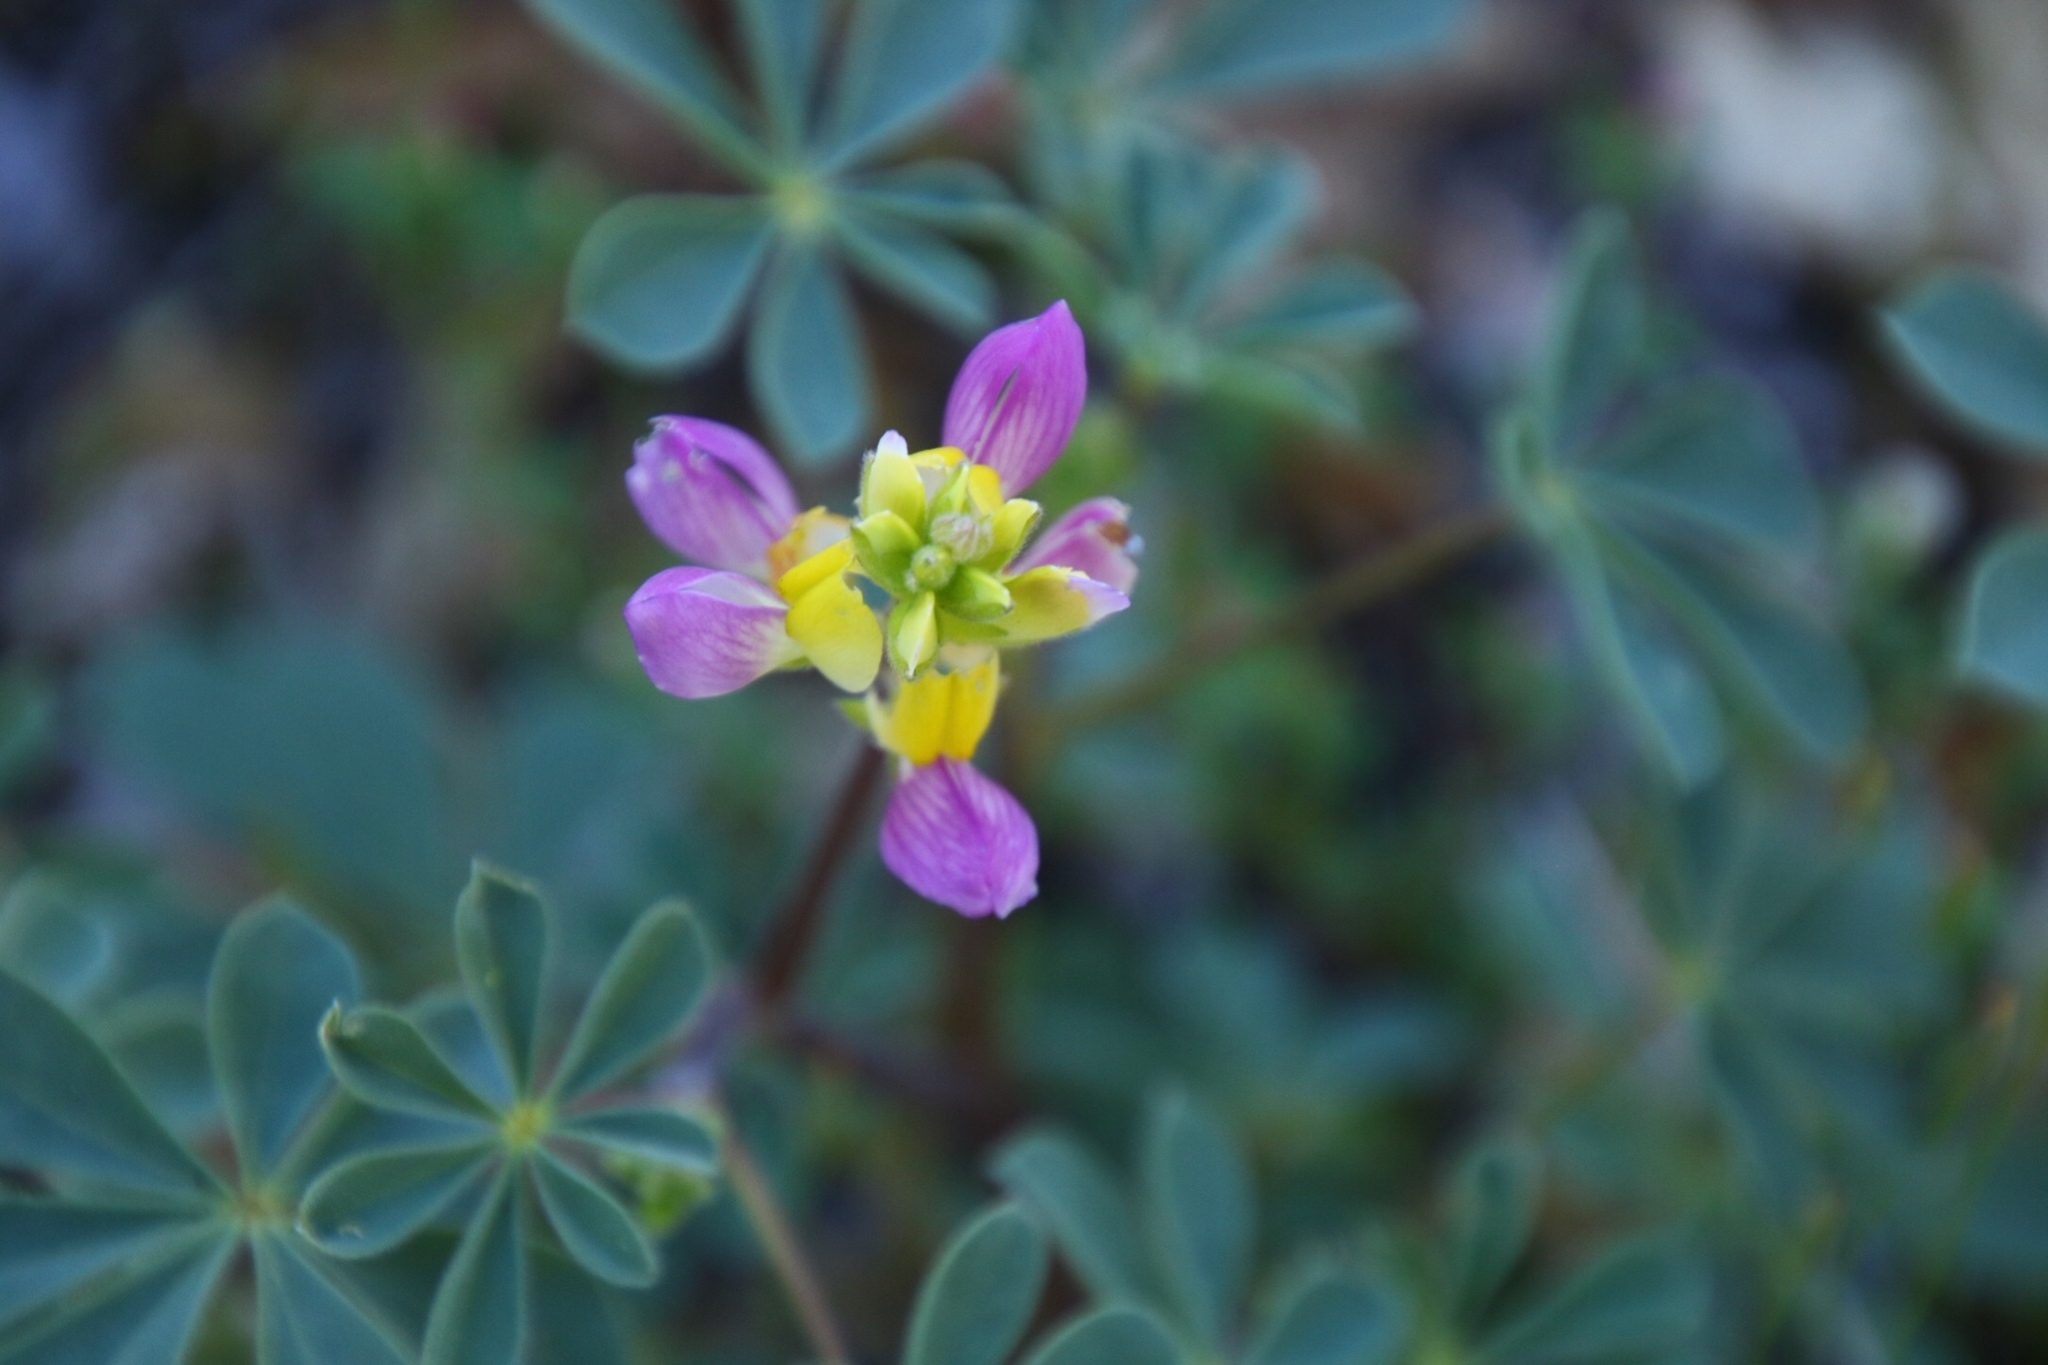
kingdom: Plantae
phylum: Tracheophyta
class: Magnoliopsida
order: Fabales
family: Fabaceae
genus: Lupinus
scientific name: Lupinus stiversii
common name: Harlequin lupine
